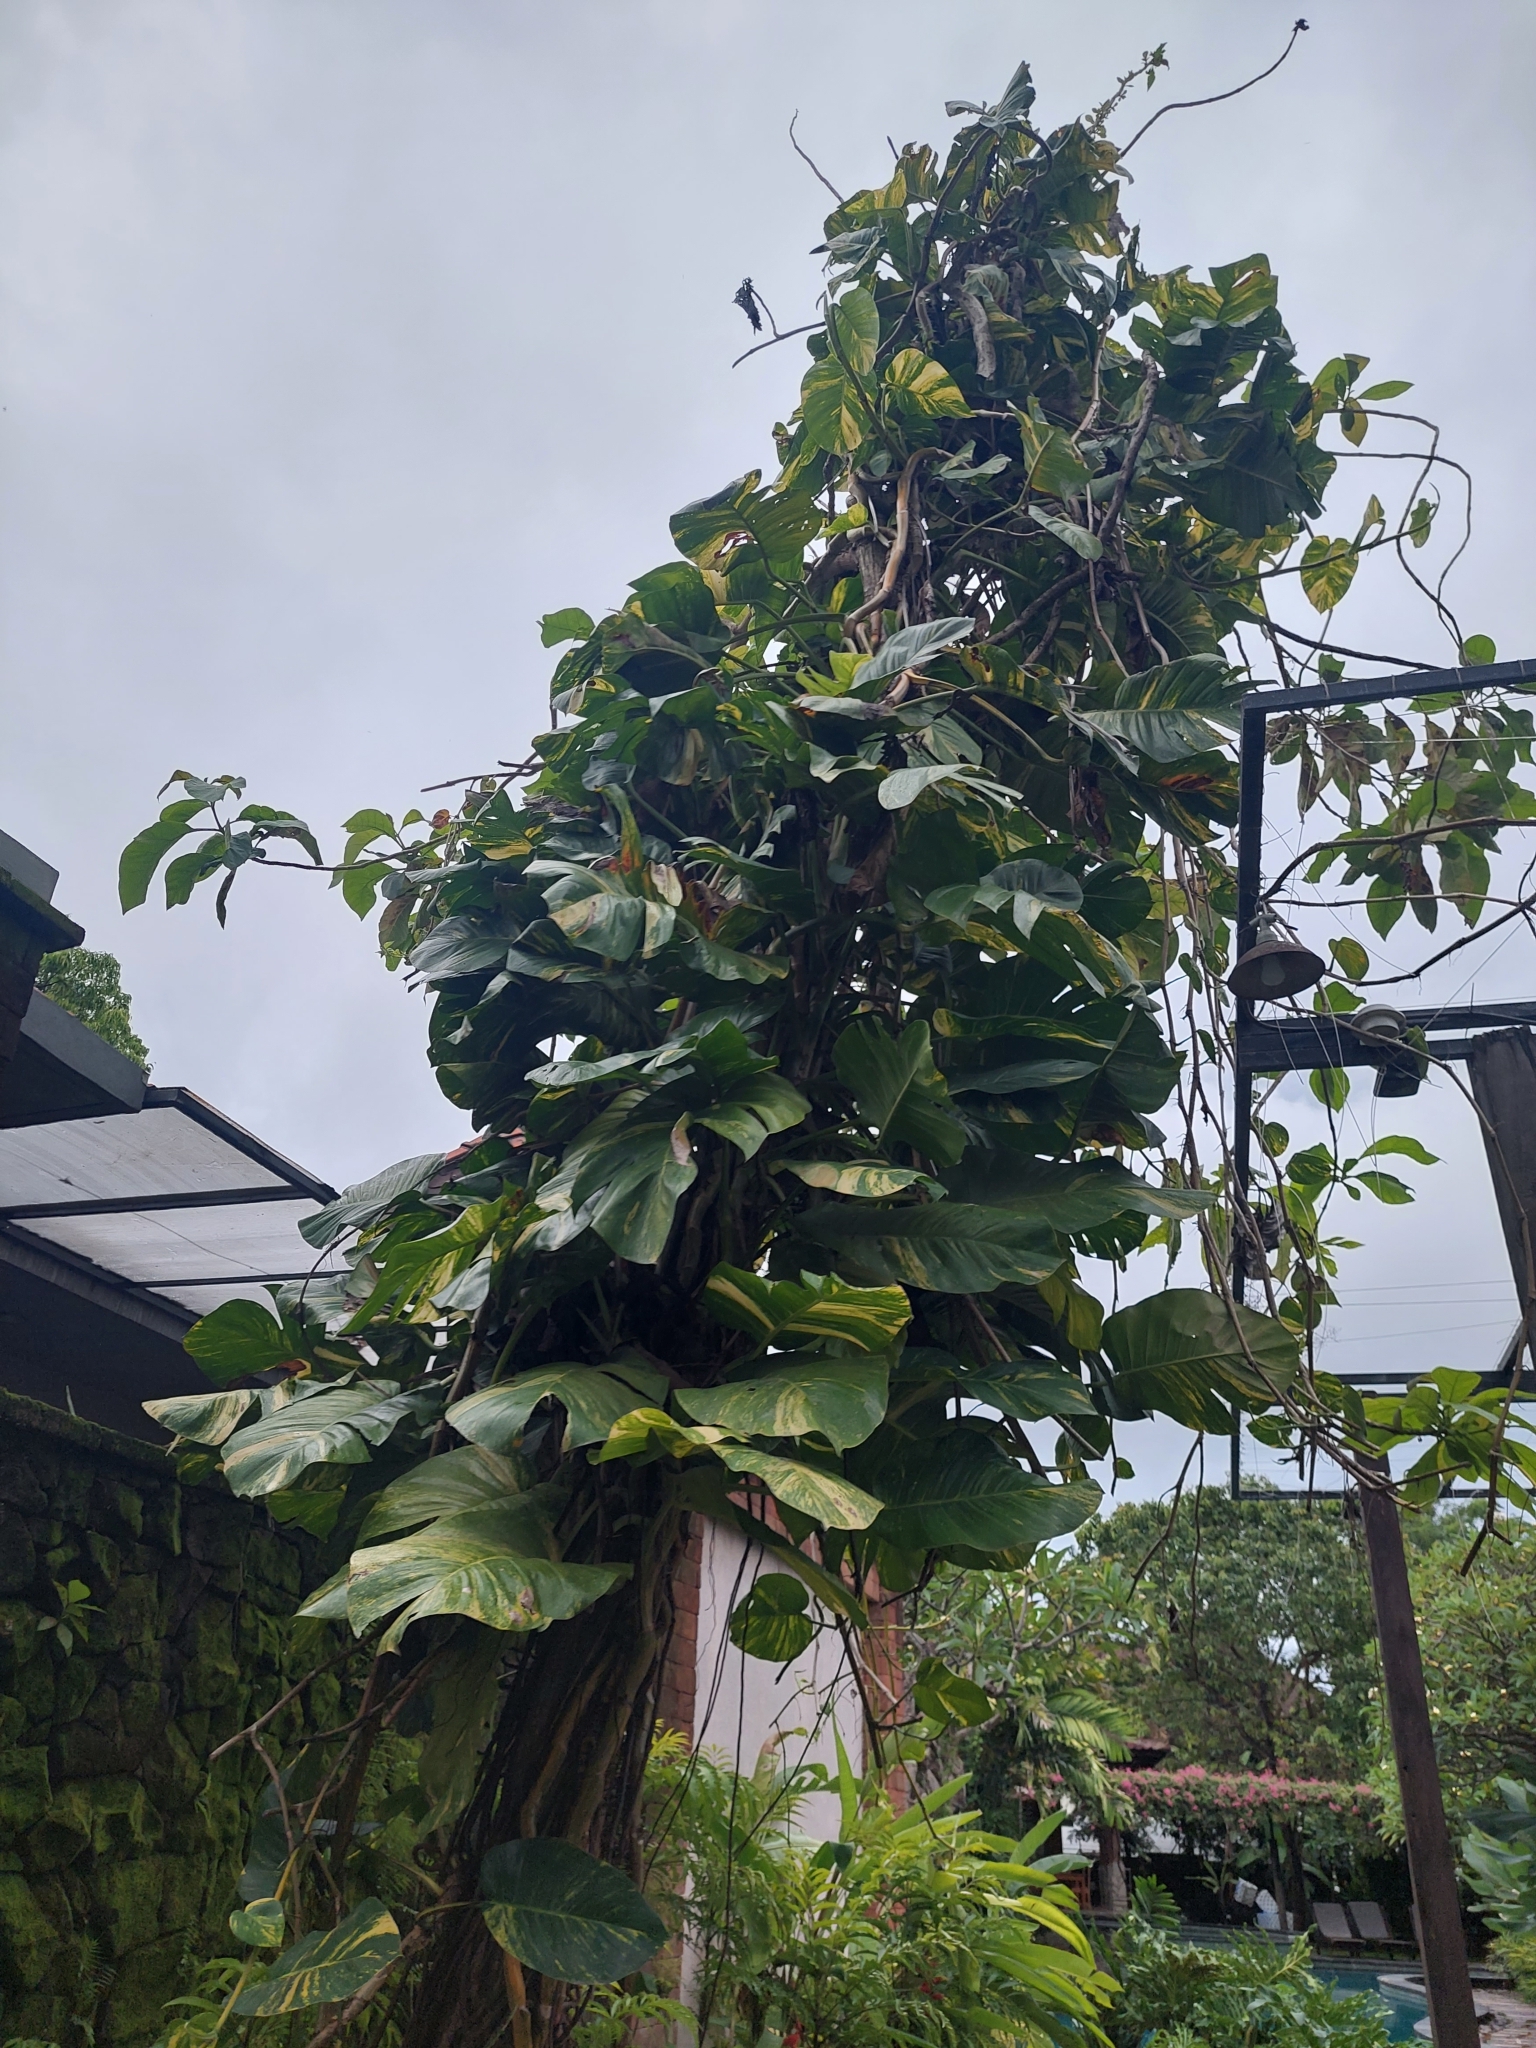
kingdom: Plantae
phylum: Tracheophyta
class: Liliopsida
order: Alismatales
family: Araceae
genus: Epipremnum
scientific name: Epipremnum aureum
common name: Golden hunter's-robe
